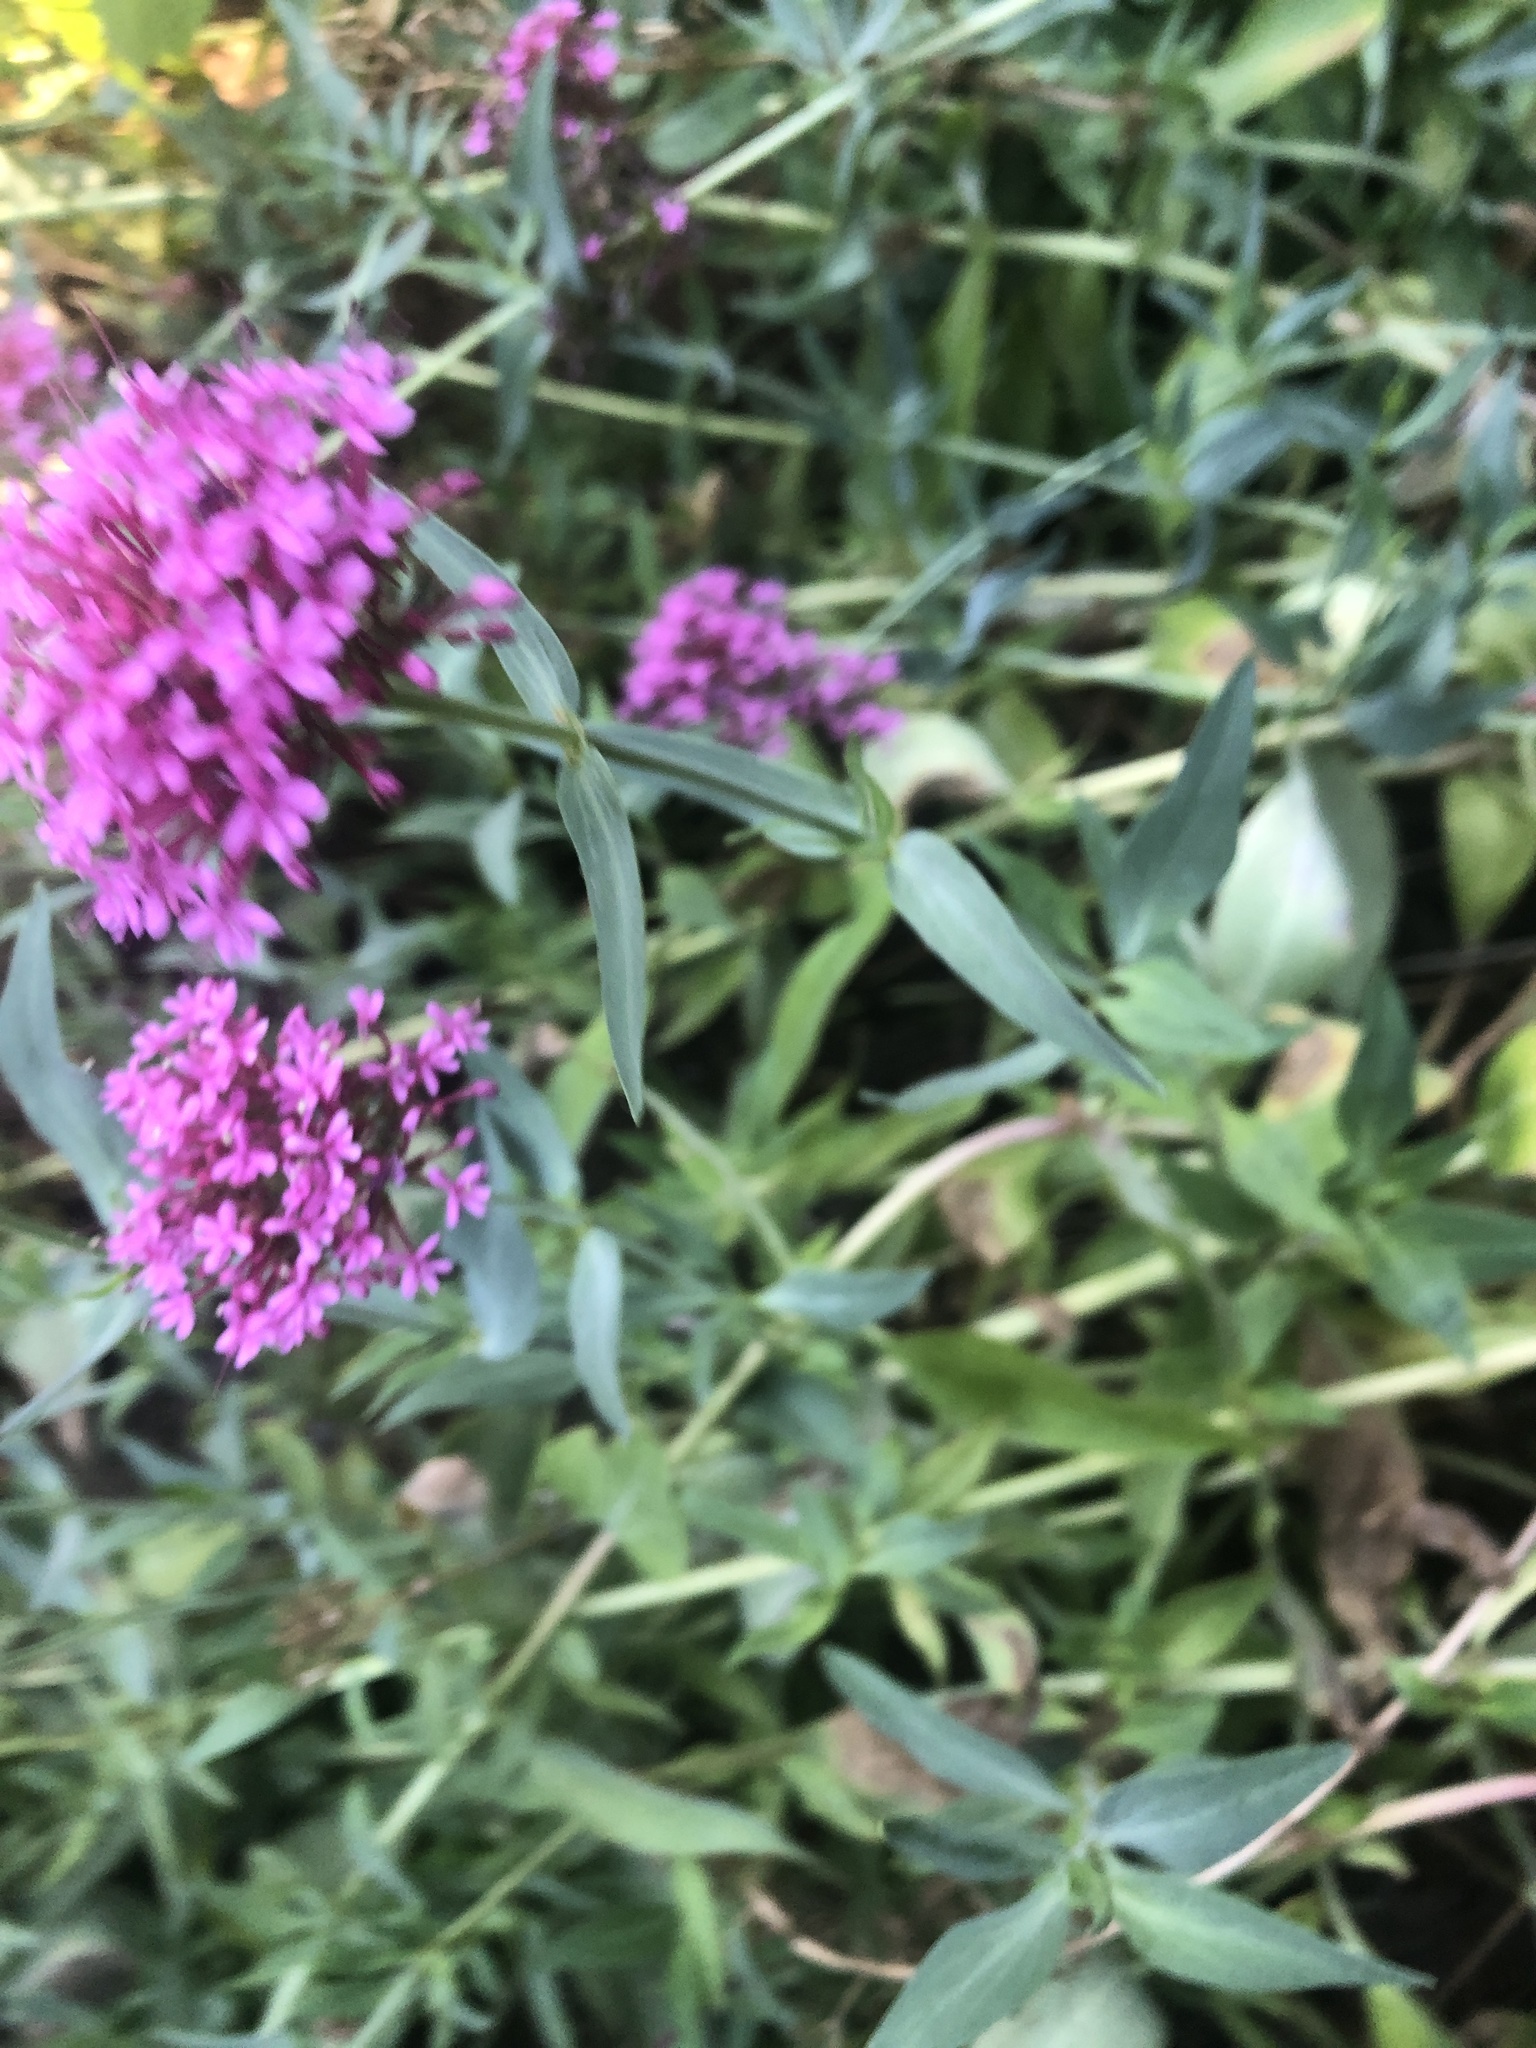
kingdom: Plantae
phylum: Tracheophyta
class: Magnoliopsida
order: Dipsacales
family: Caprifoliaceae
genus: Centranthus
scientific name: Centranthus ruber
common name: Red valerian
